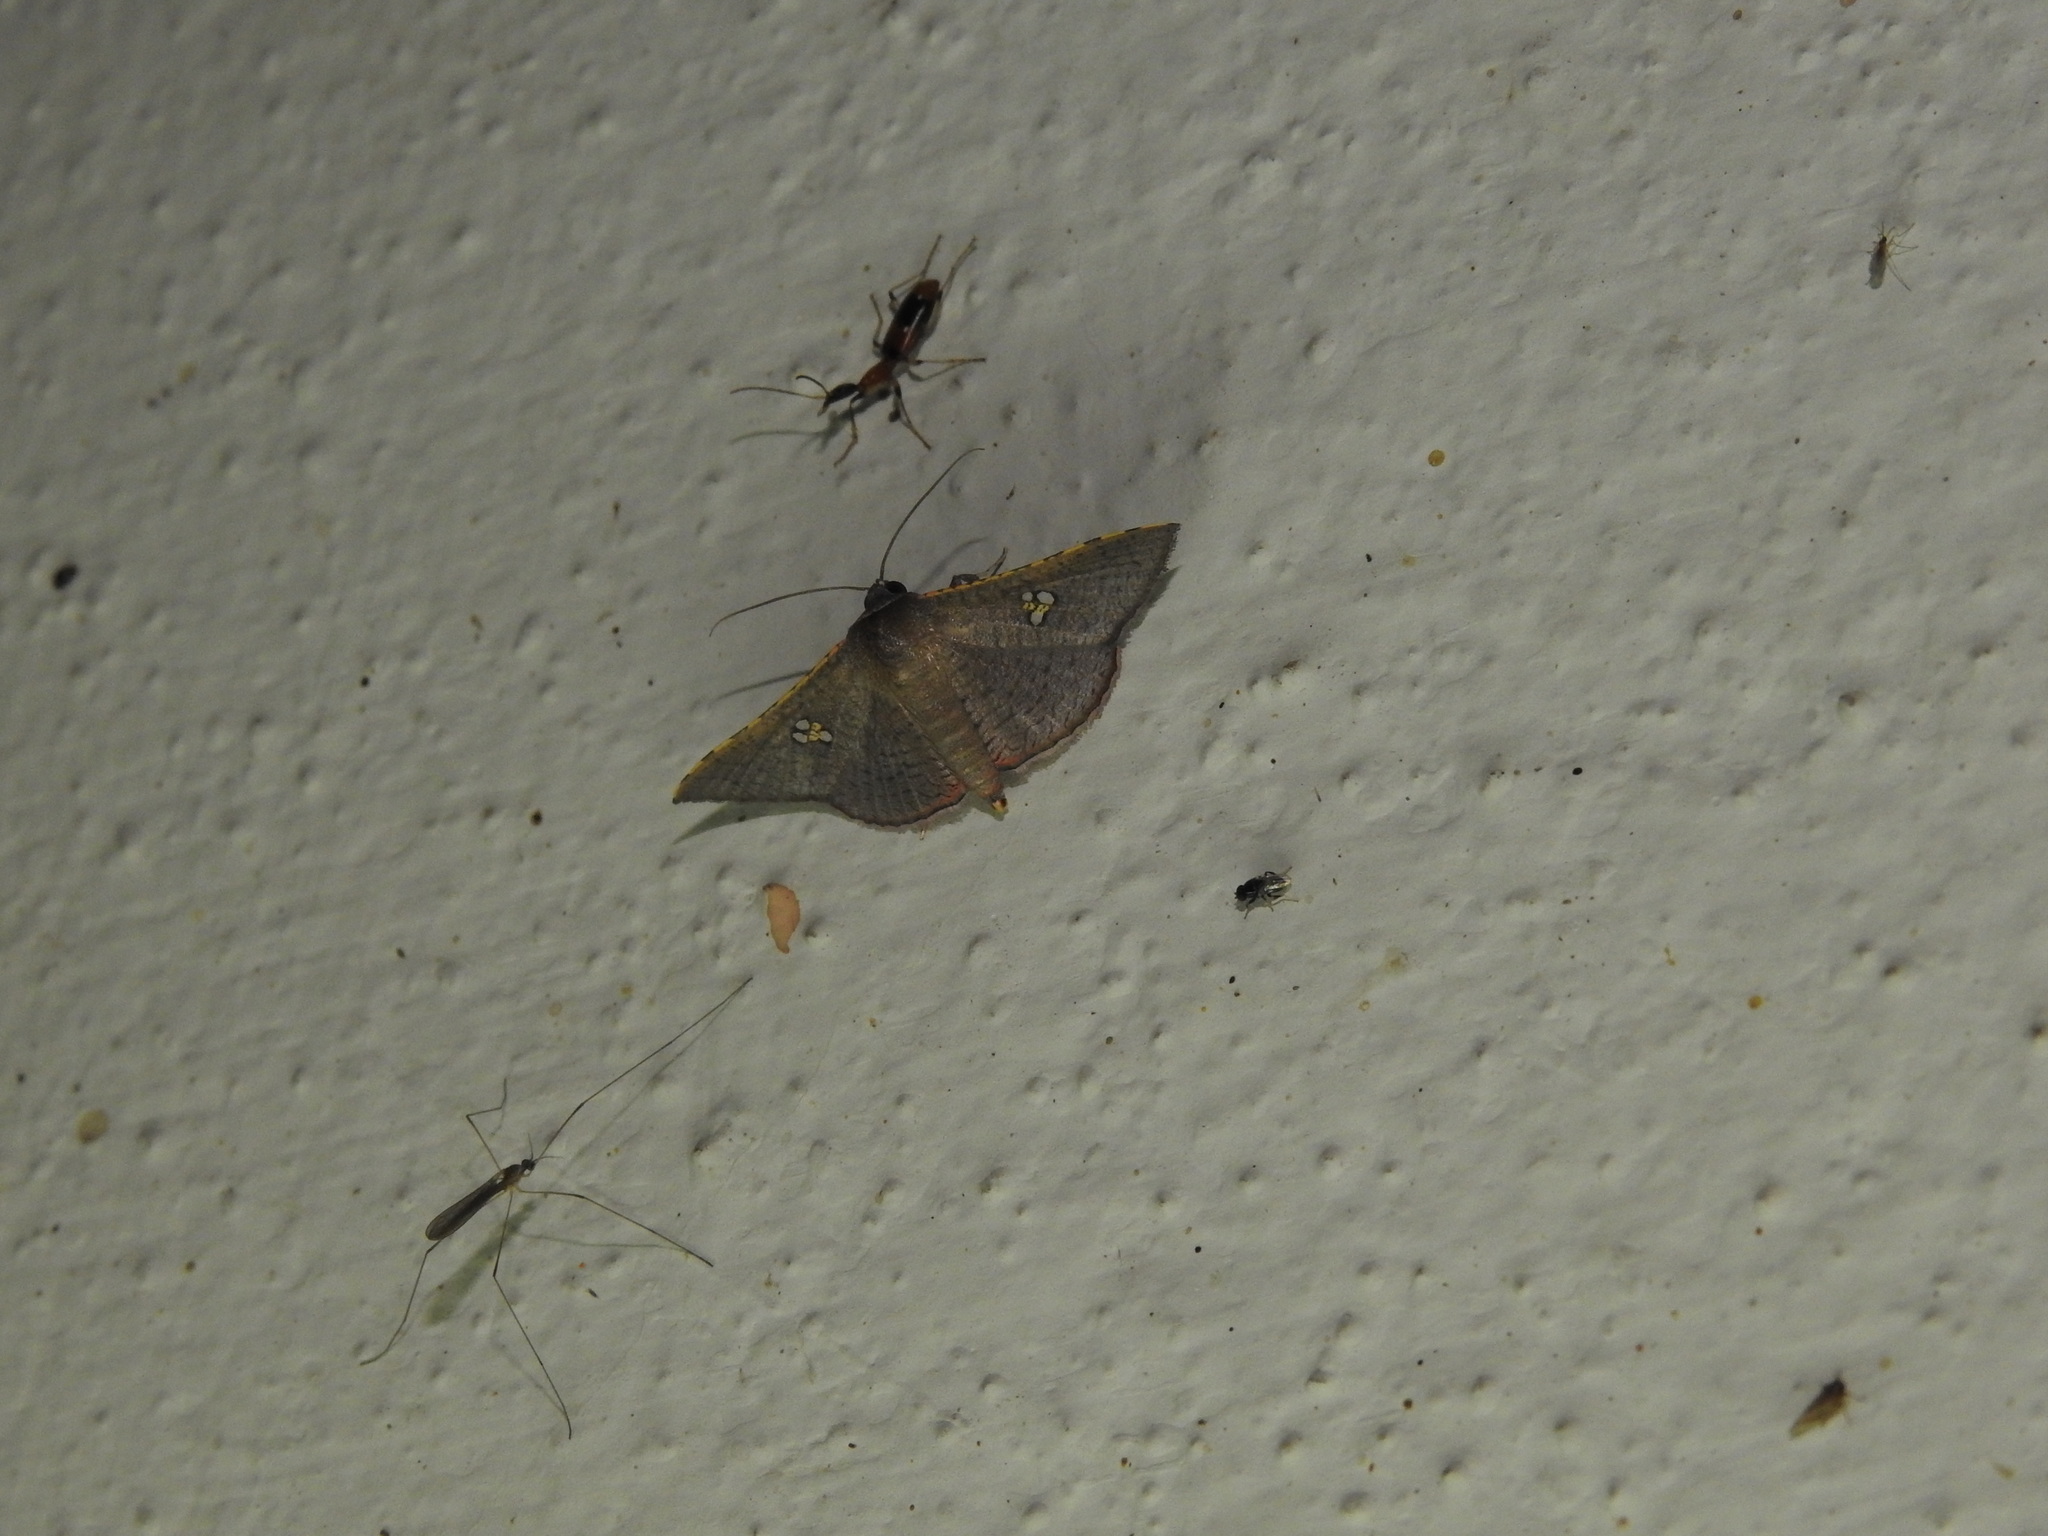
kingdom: Animalia
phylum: Arthropoda
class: Insecta
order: Lepidoptera
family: Thyrididae
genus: Banisia
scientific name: Banisia myrsusalis
